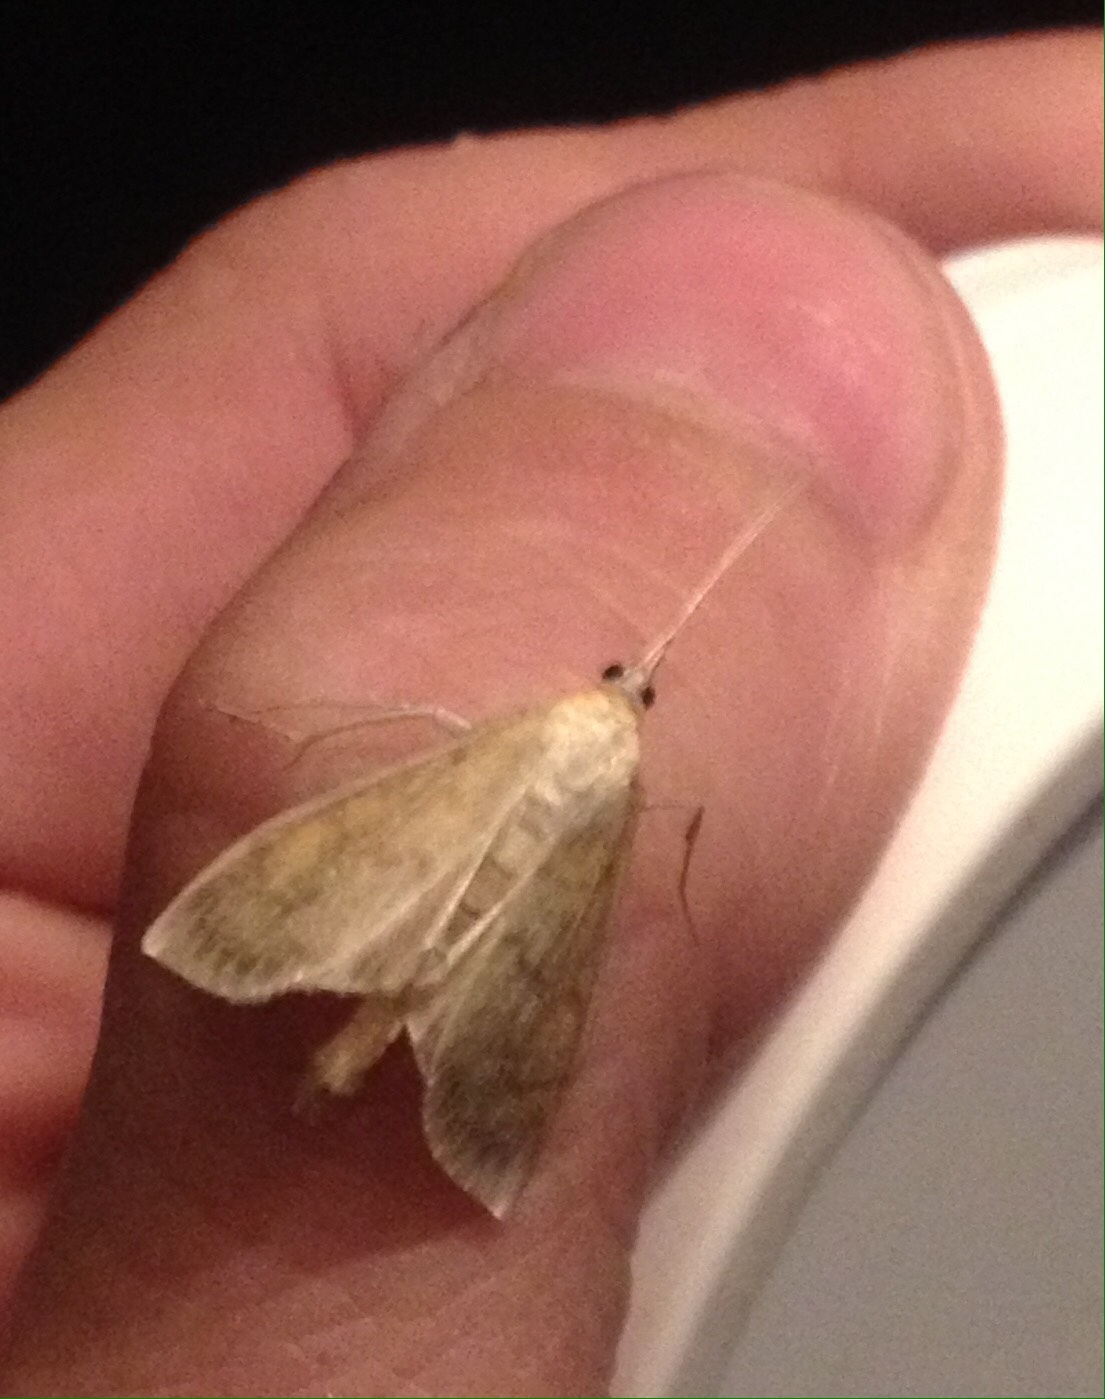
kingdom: Animalia
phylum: Arthropoda
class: Insecta
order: Lepidoptera
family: Crambidae
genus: Paratalanta
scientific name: Paratalanta pandalis
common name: Bordered pearl
